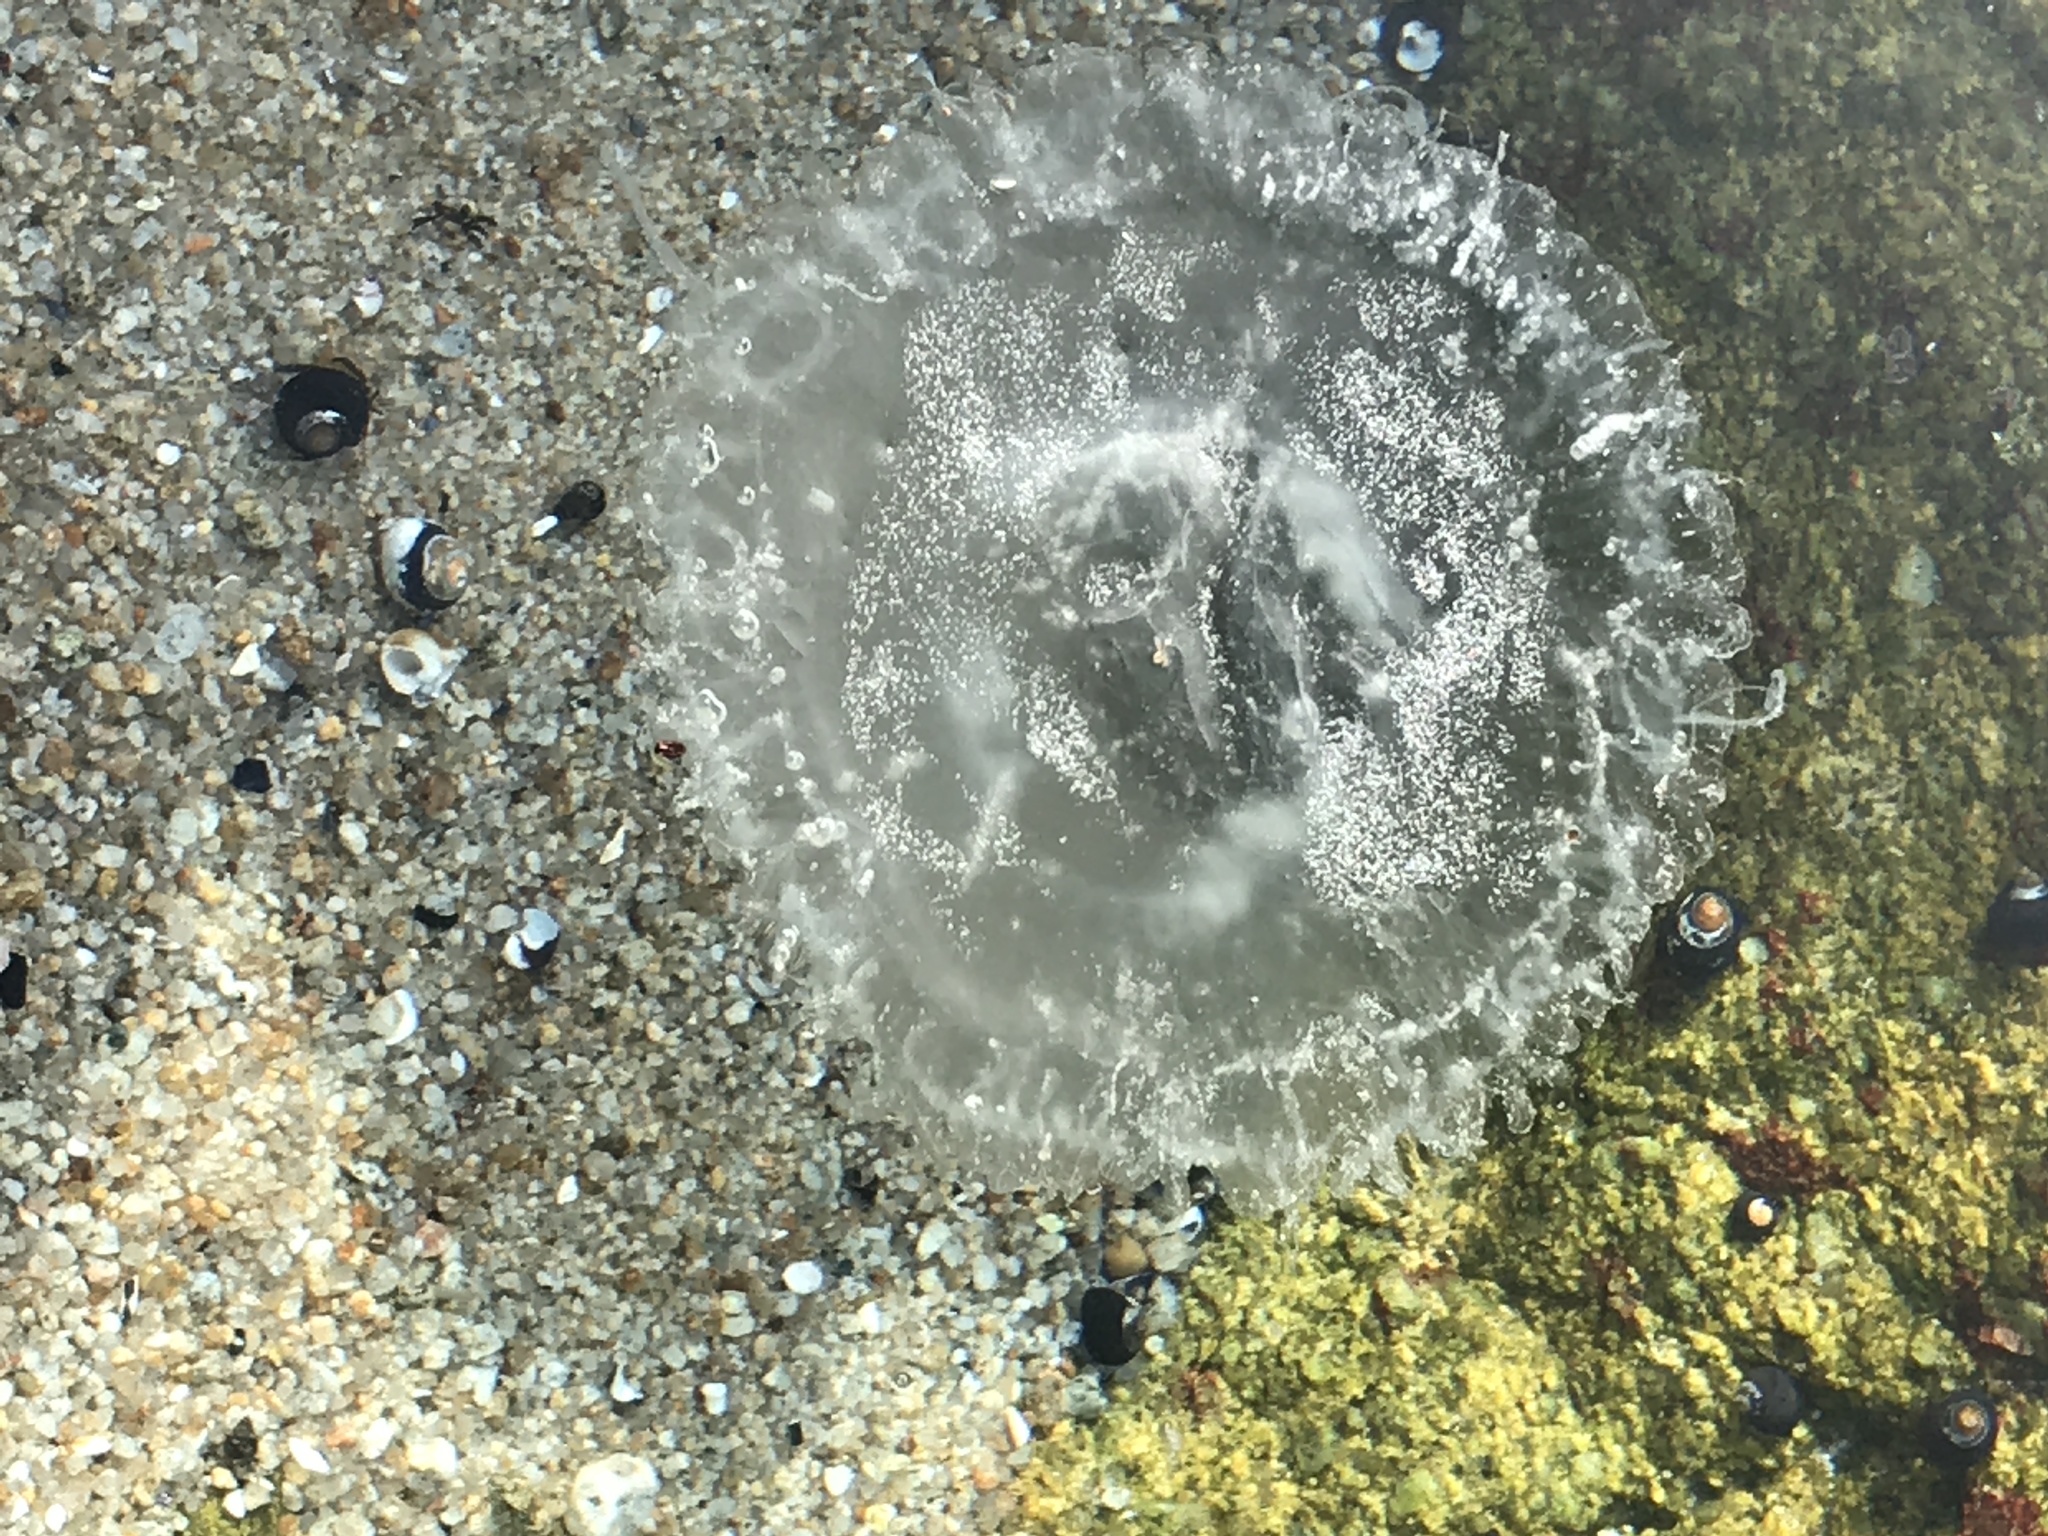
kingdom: Animalia
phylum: Cnidaria
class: Scyphozoa
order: Semaeostomeae
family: Phacellophoridae
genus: Phacellophora
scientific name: Phacellophora camtschatica
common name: Fried-egg jellyfish
